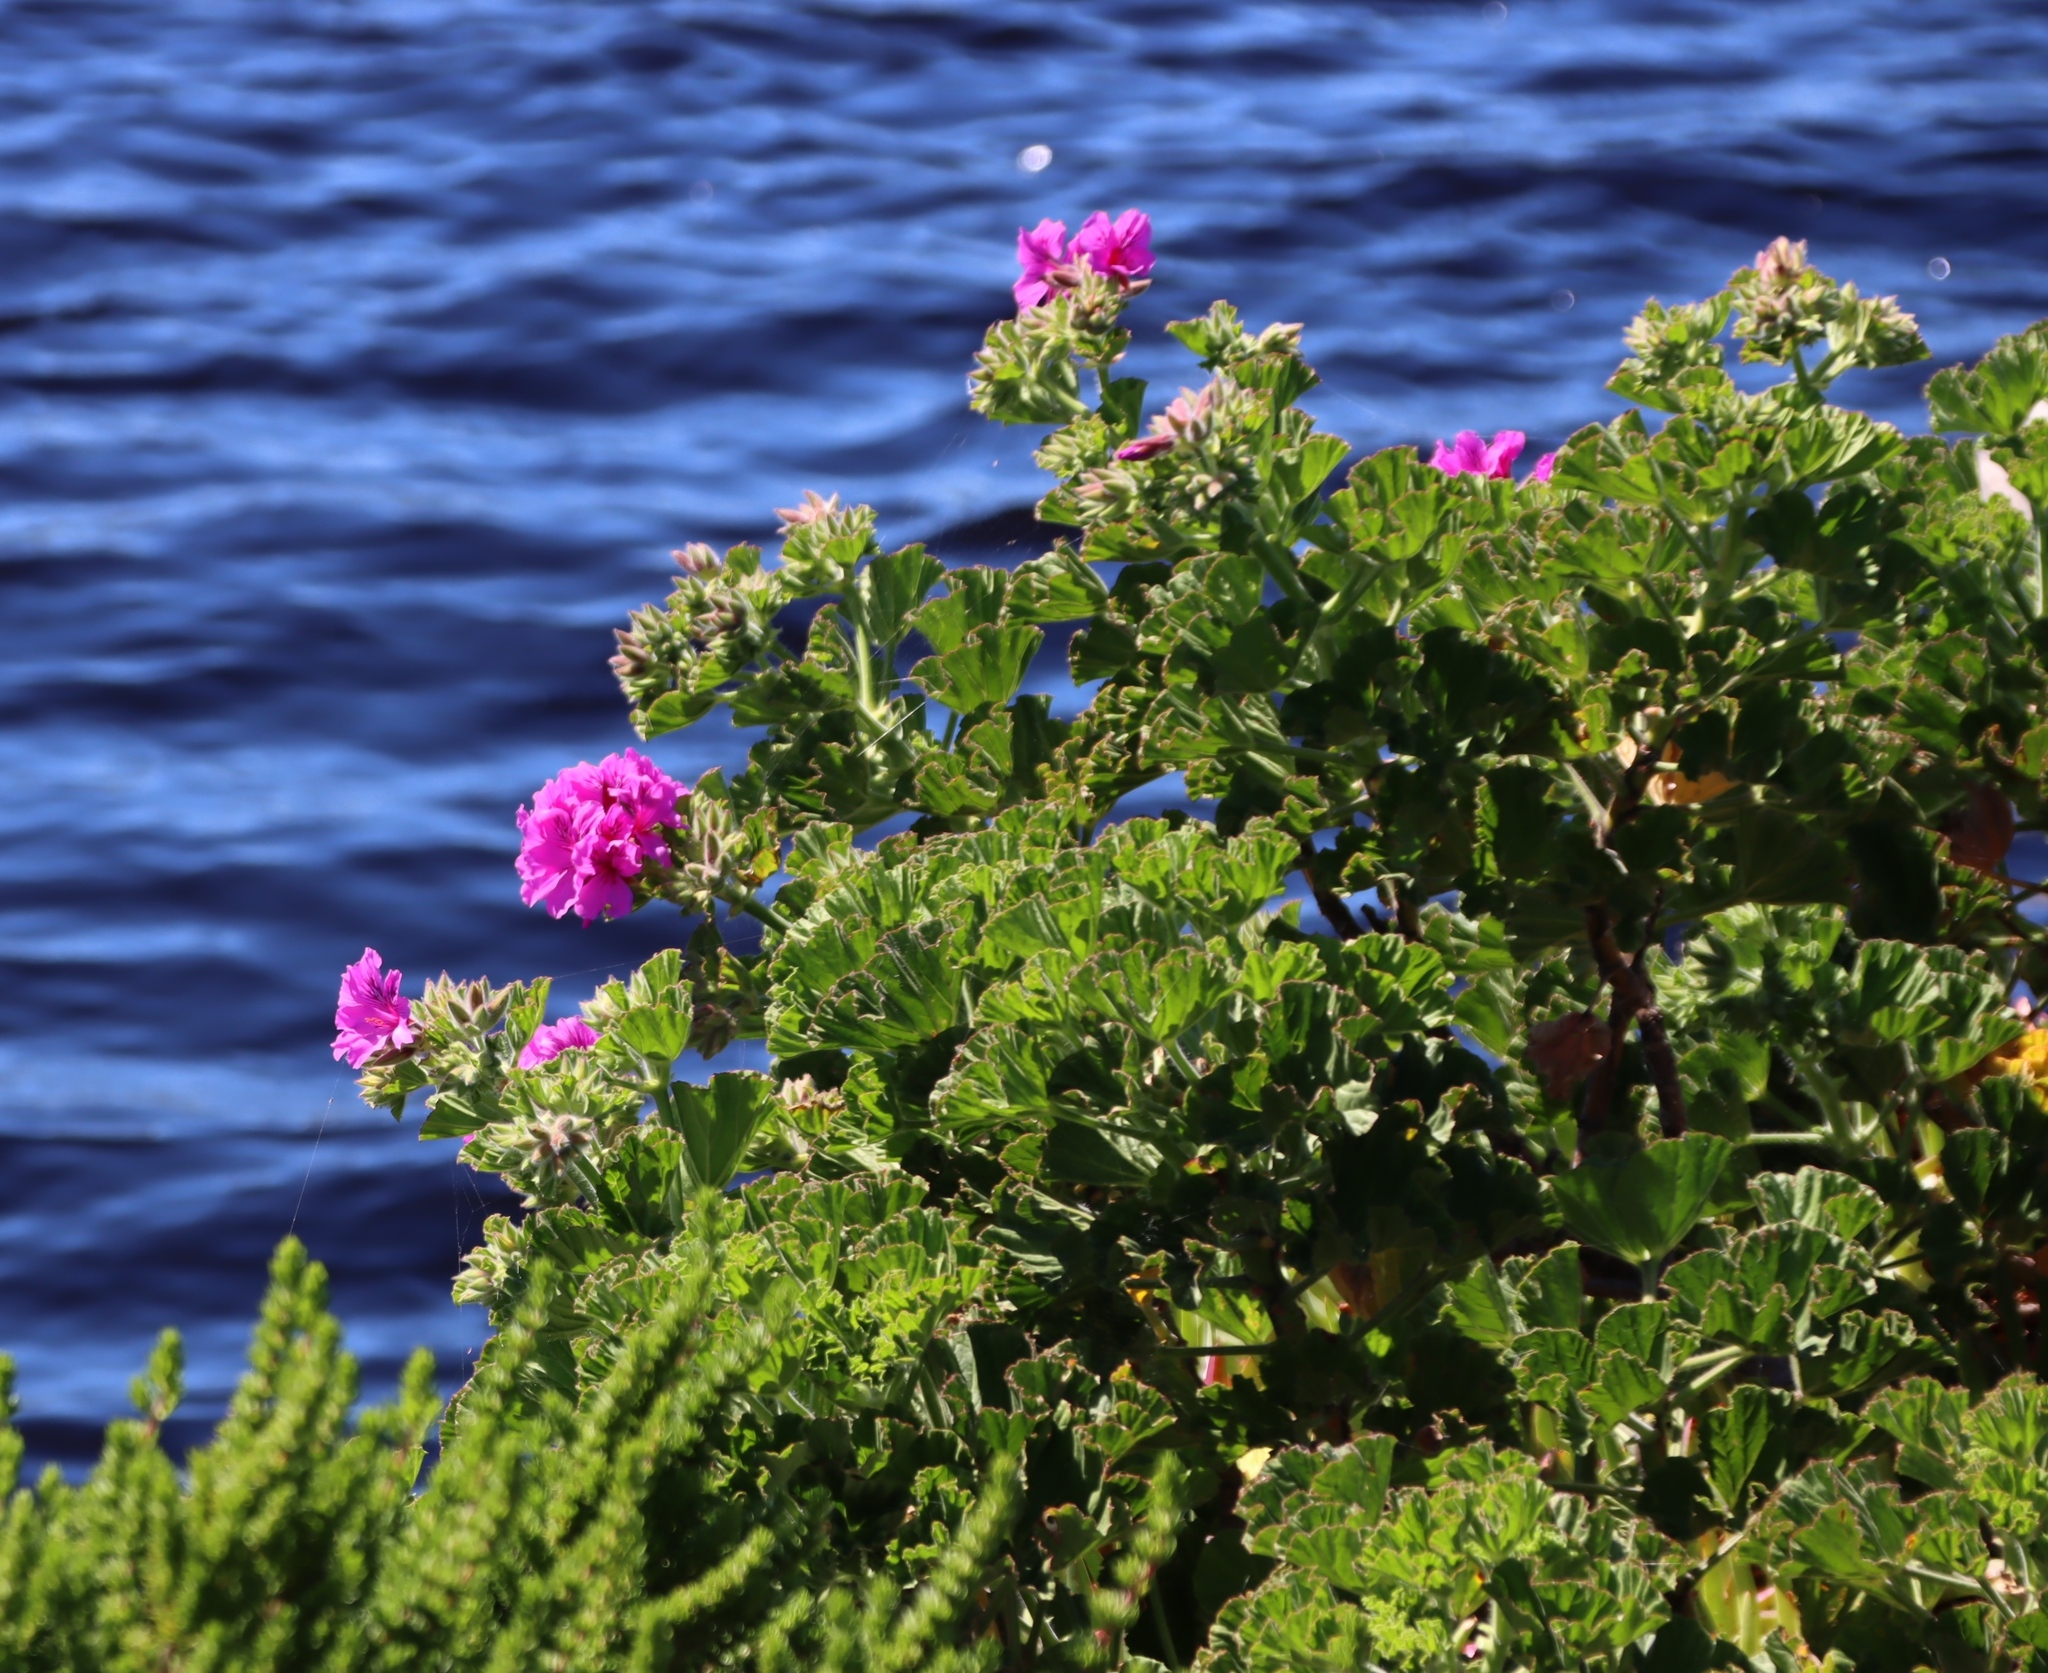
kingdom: Plantae
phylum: Tracheophyta
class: Magnoliopsida
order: Geraniales
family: Geraniaceae
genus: Pelargonium
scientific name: Pelargonium cucullatum
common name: Tree pelargonium
